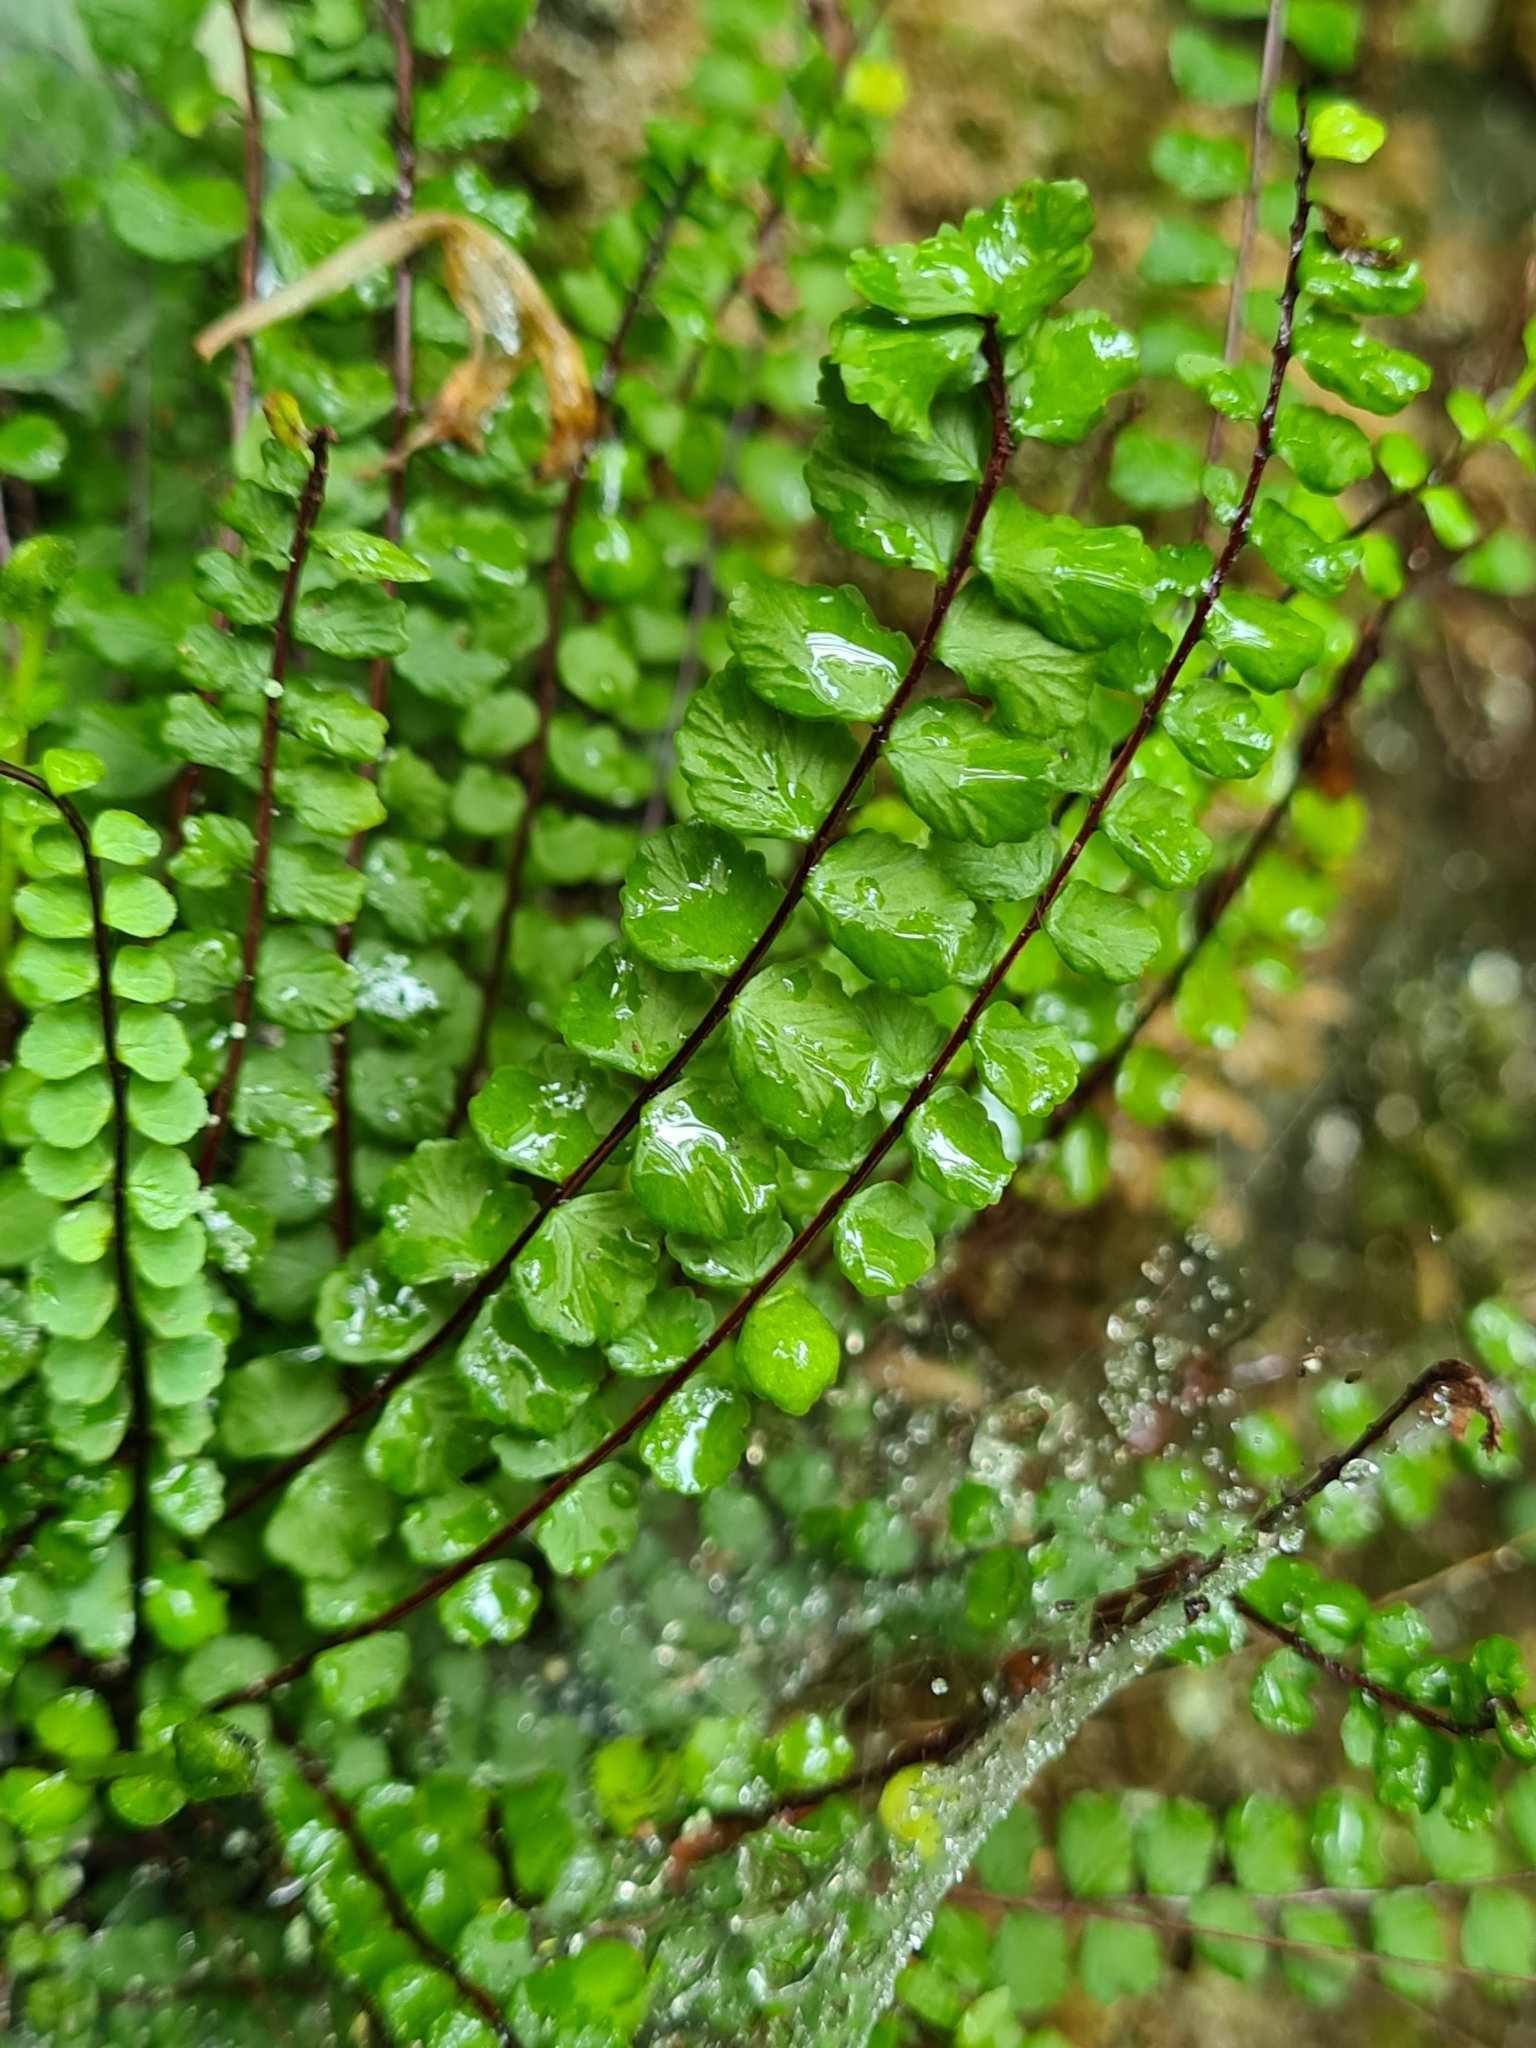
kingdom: Plantae
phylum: Tracheophyta
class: Polypodiopsida
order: Polypodiales
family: Aspleniaceae
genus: Asplenium
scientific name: Asplenium trichomanes
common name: Maidenhair spleenwort
